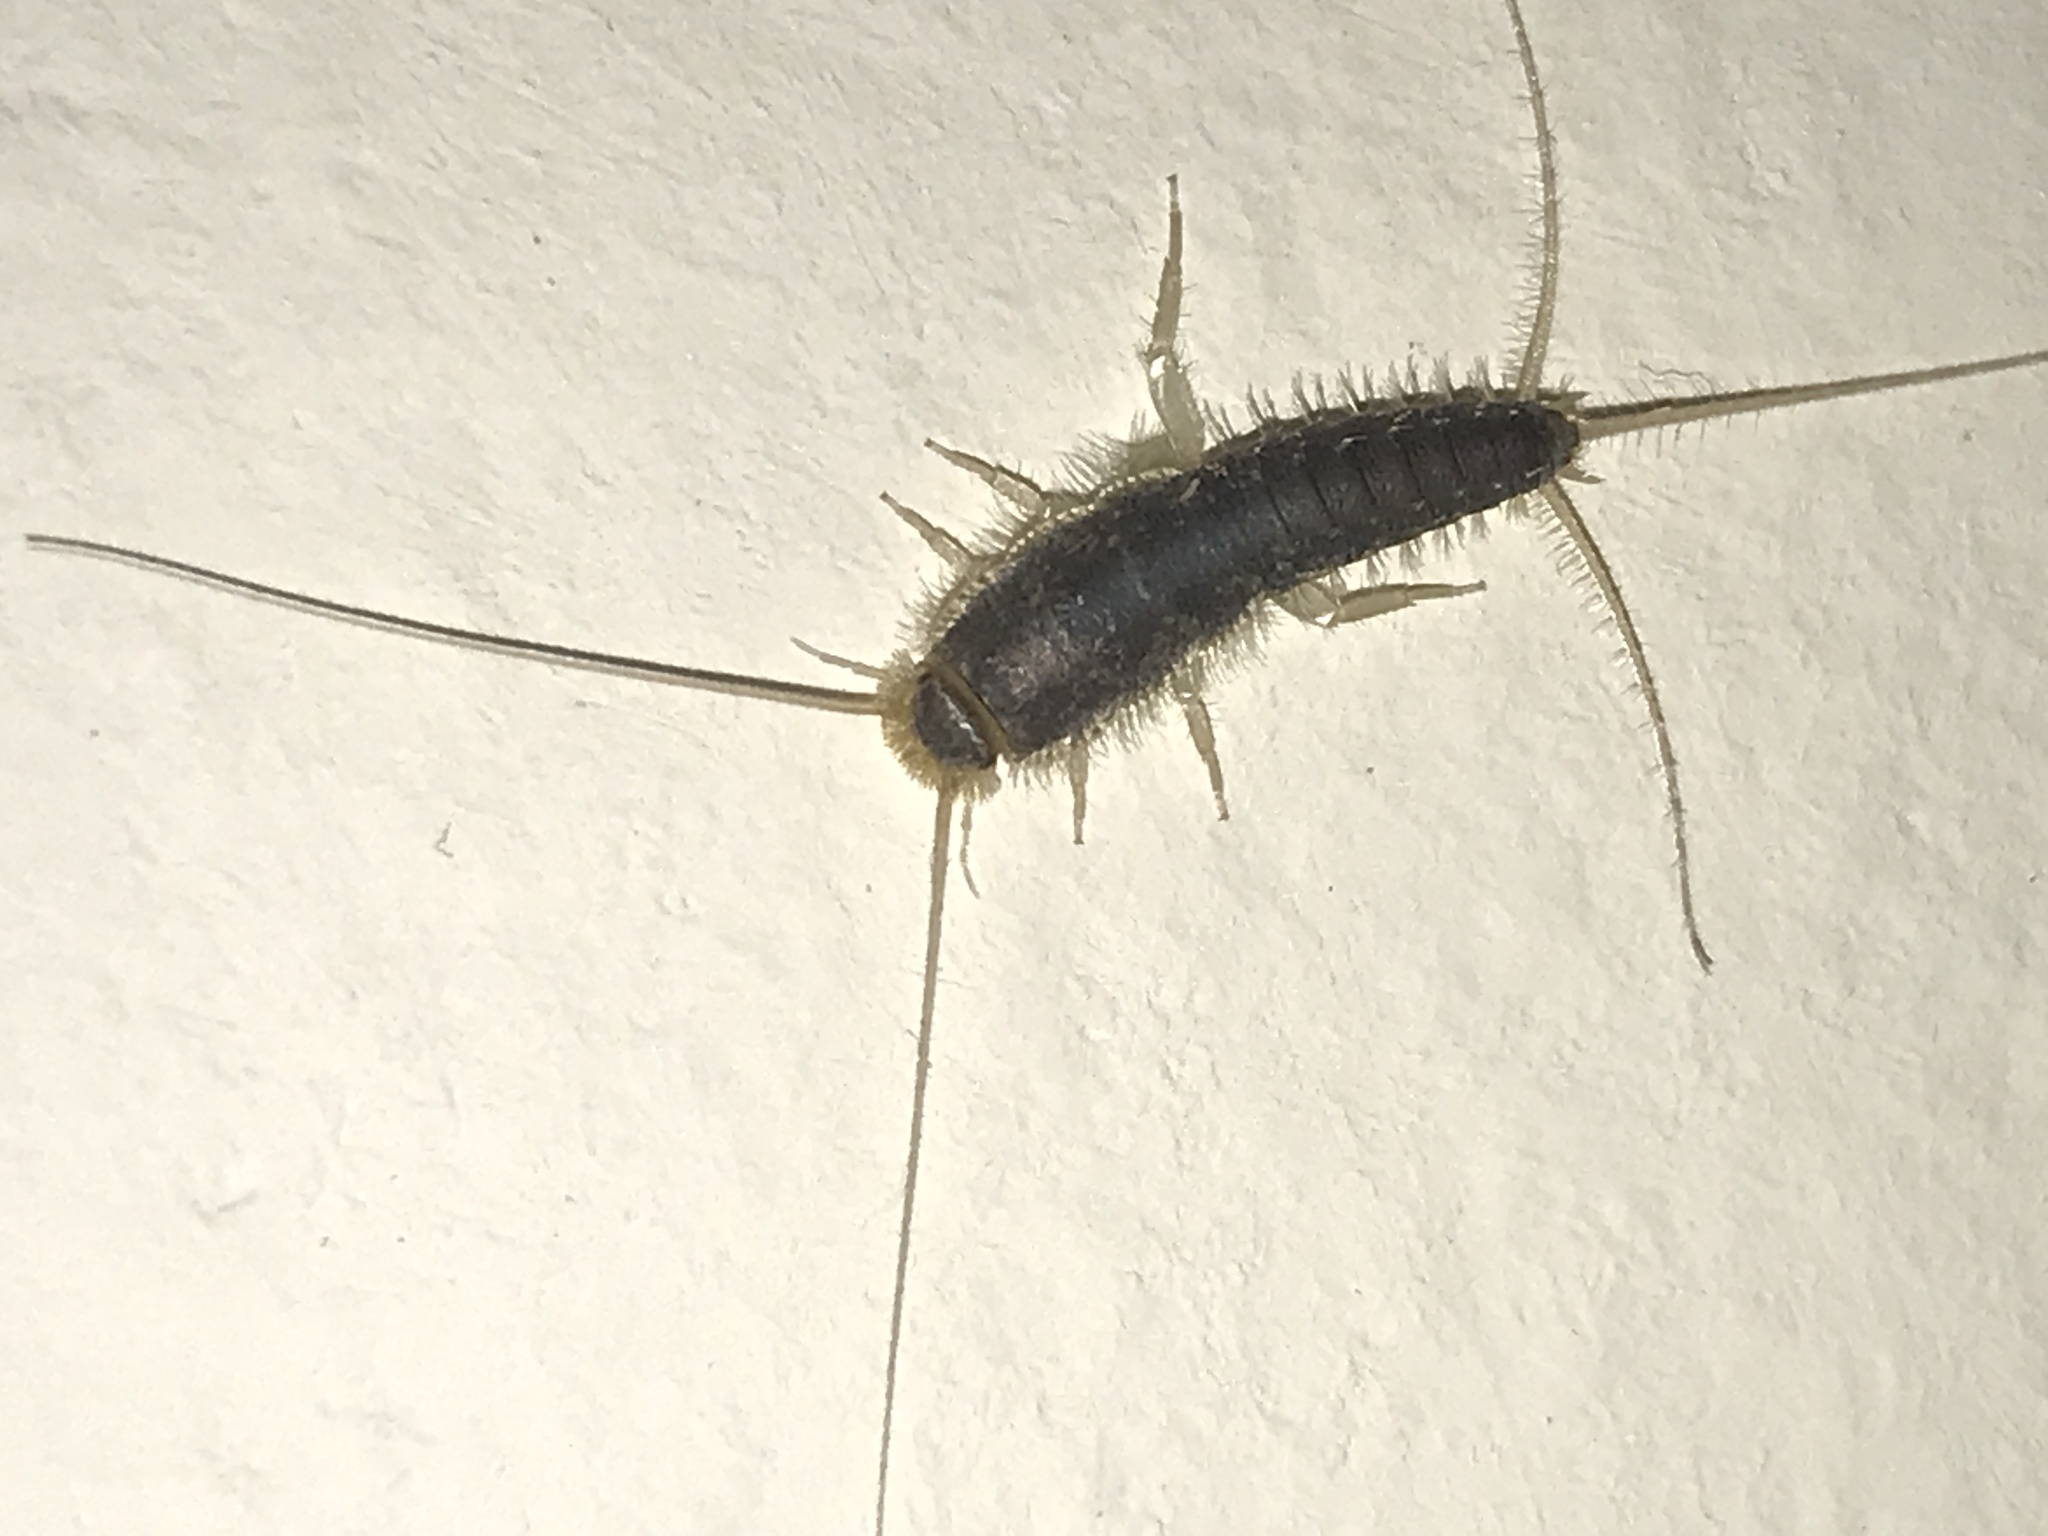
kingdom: Animalia
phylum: Arthropoda
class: Insecta
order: Zygentoma
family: Lepismatidae
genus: Ctenolepisma
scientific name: Ctenolepisma longicaudatum
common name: Silverfish
